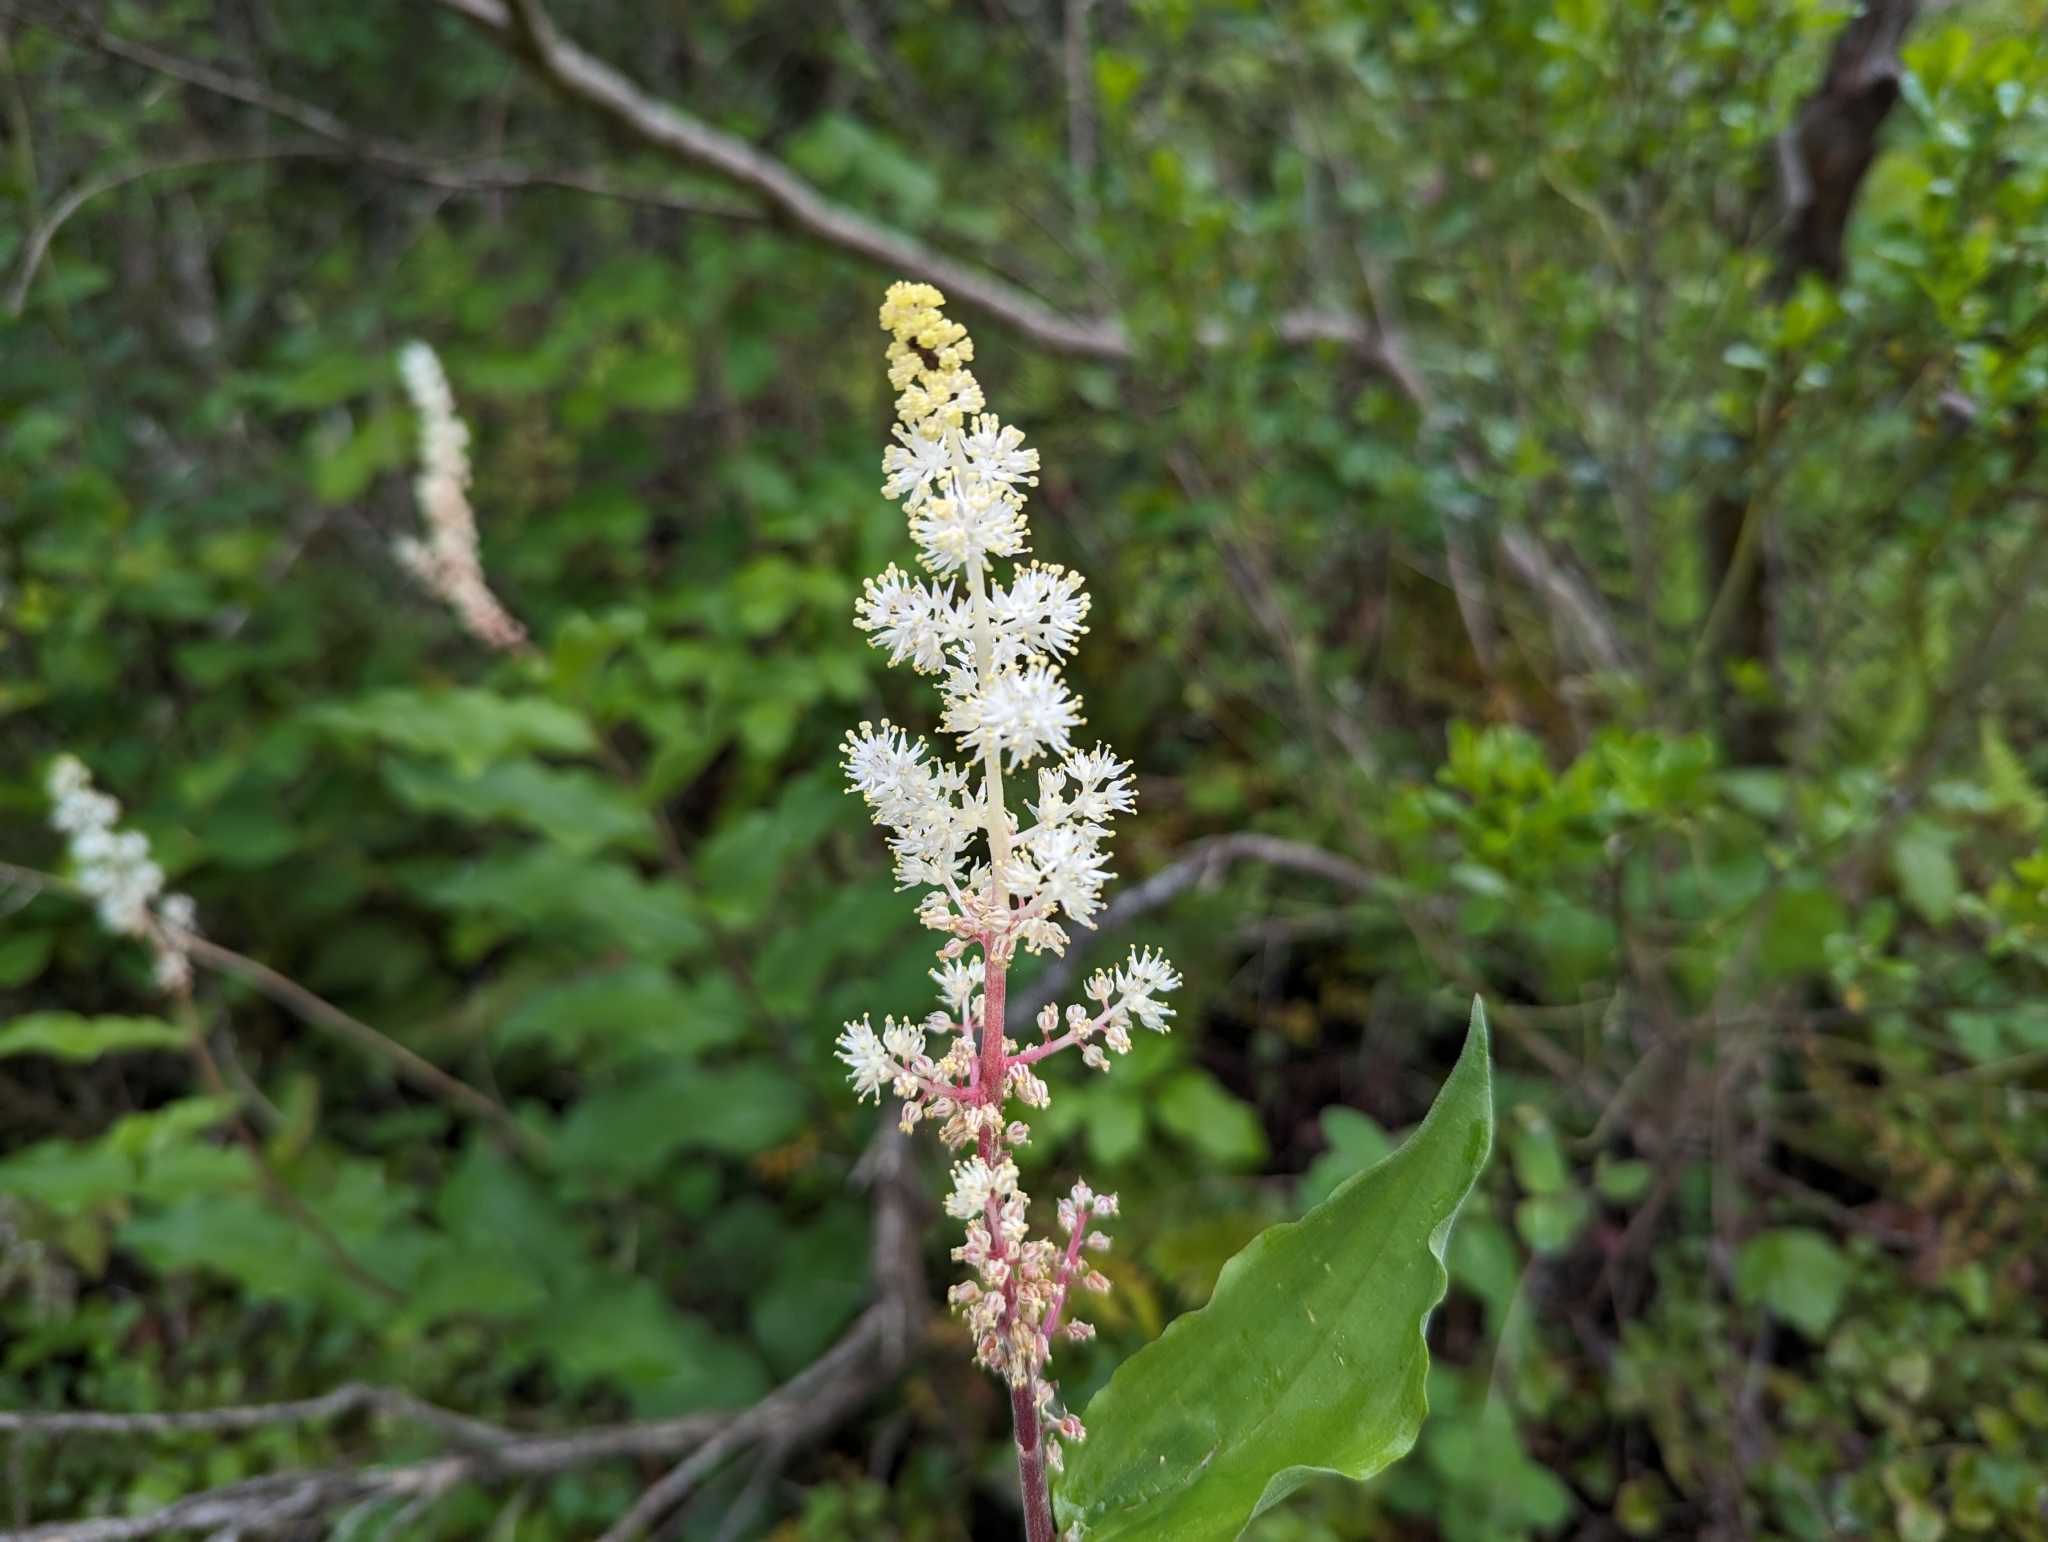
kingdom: Plantae
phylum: Tracheophyta
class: Liliopsida
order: Asparagales
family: Asparagaceae
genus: Maianthemum
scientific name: Maianthemum racemosum
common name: False spikenard
